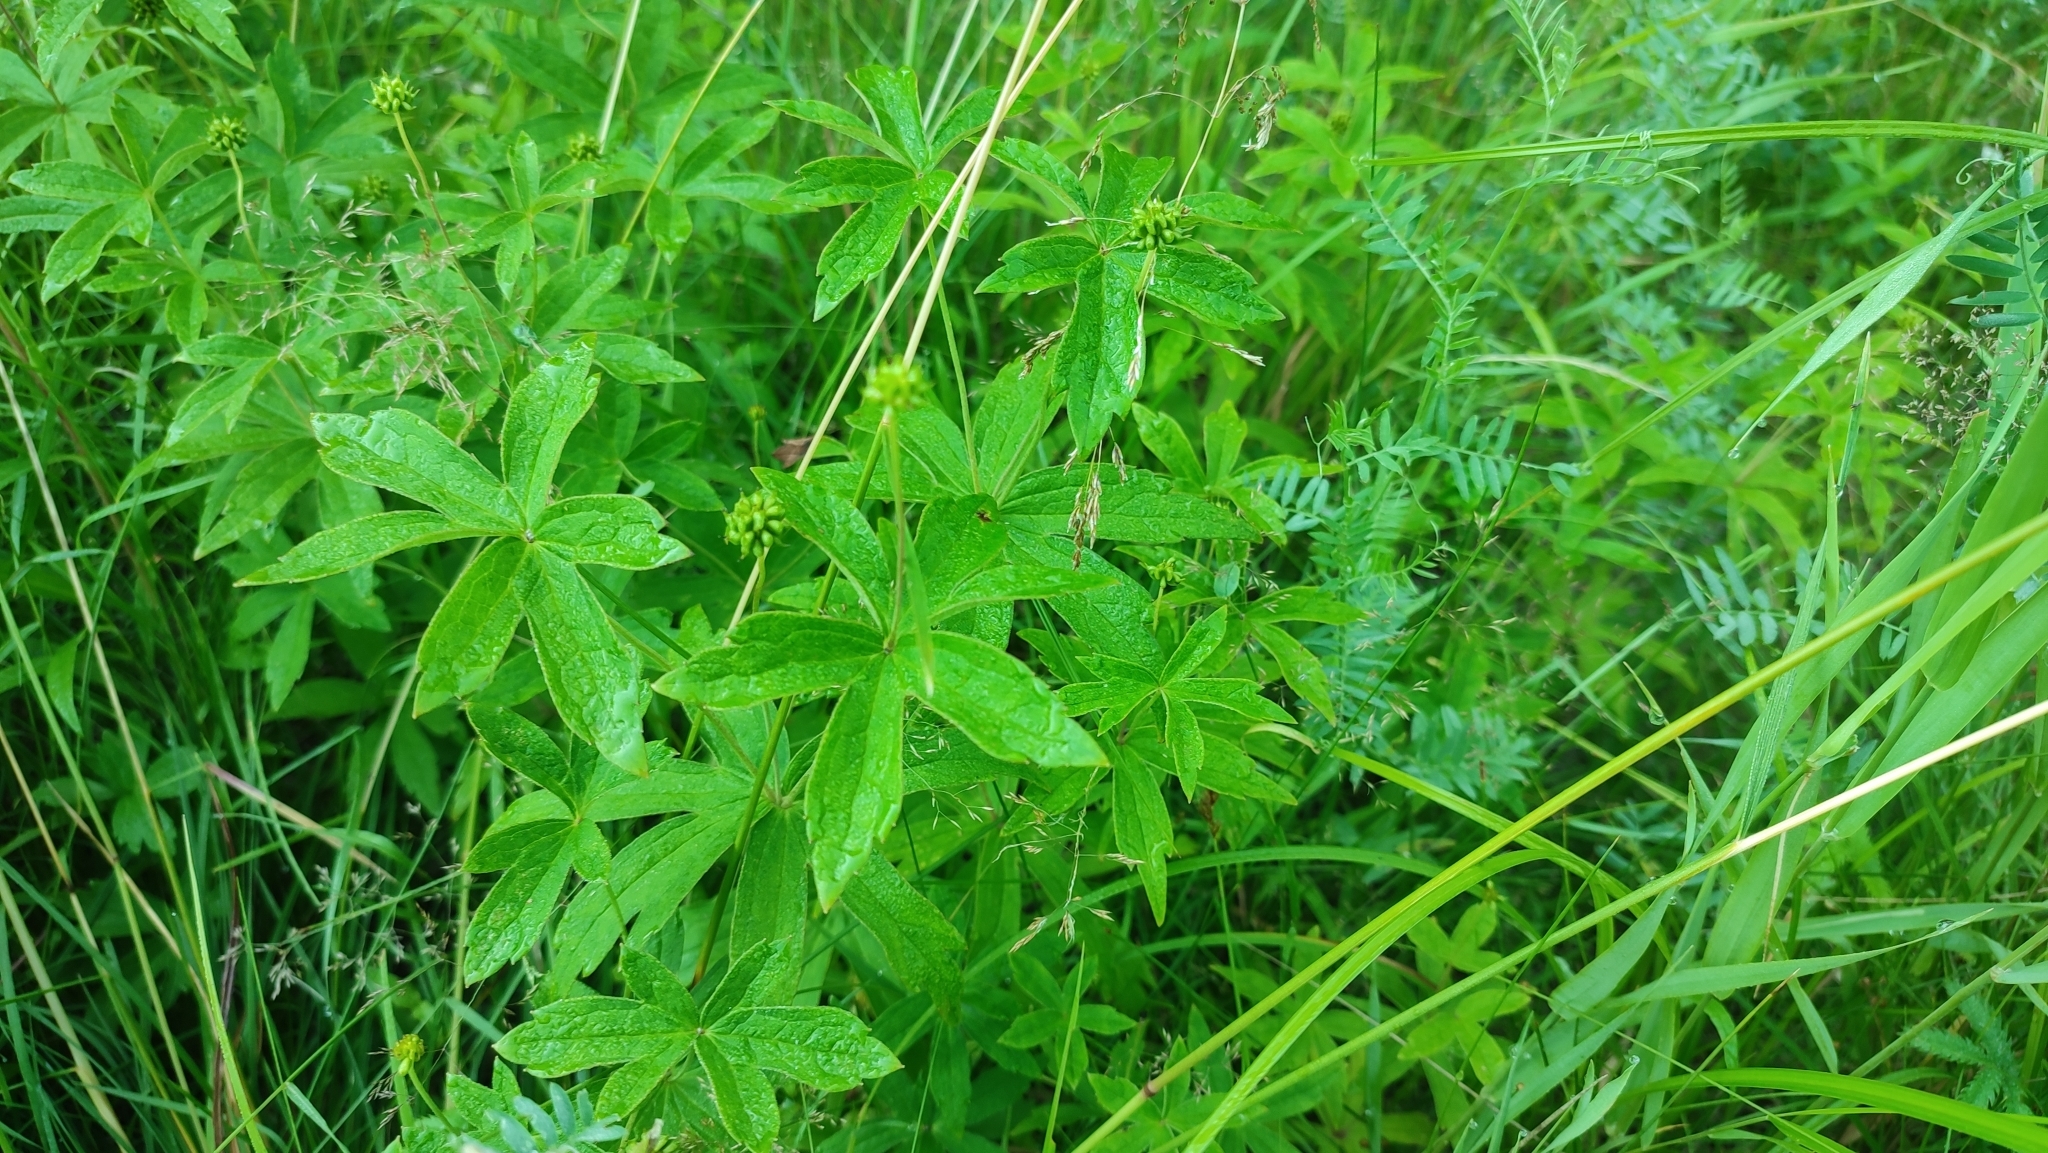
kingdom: Plantae
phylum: Tracheophyta
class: Magnoliopsida
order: Ranunculales
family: Ranunculaceae
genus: Anemonastrum
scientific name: Anemonastrum dichotomum
